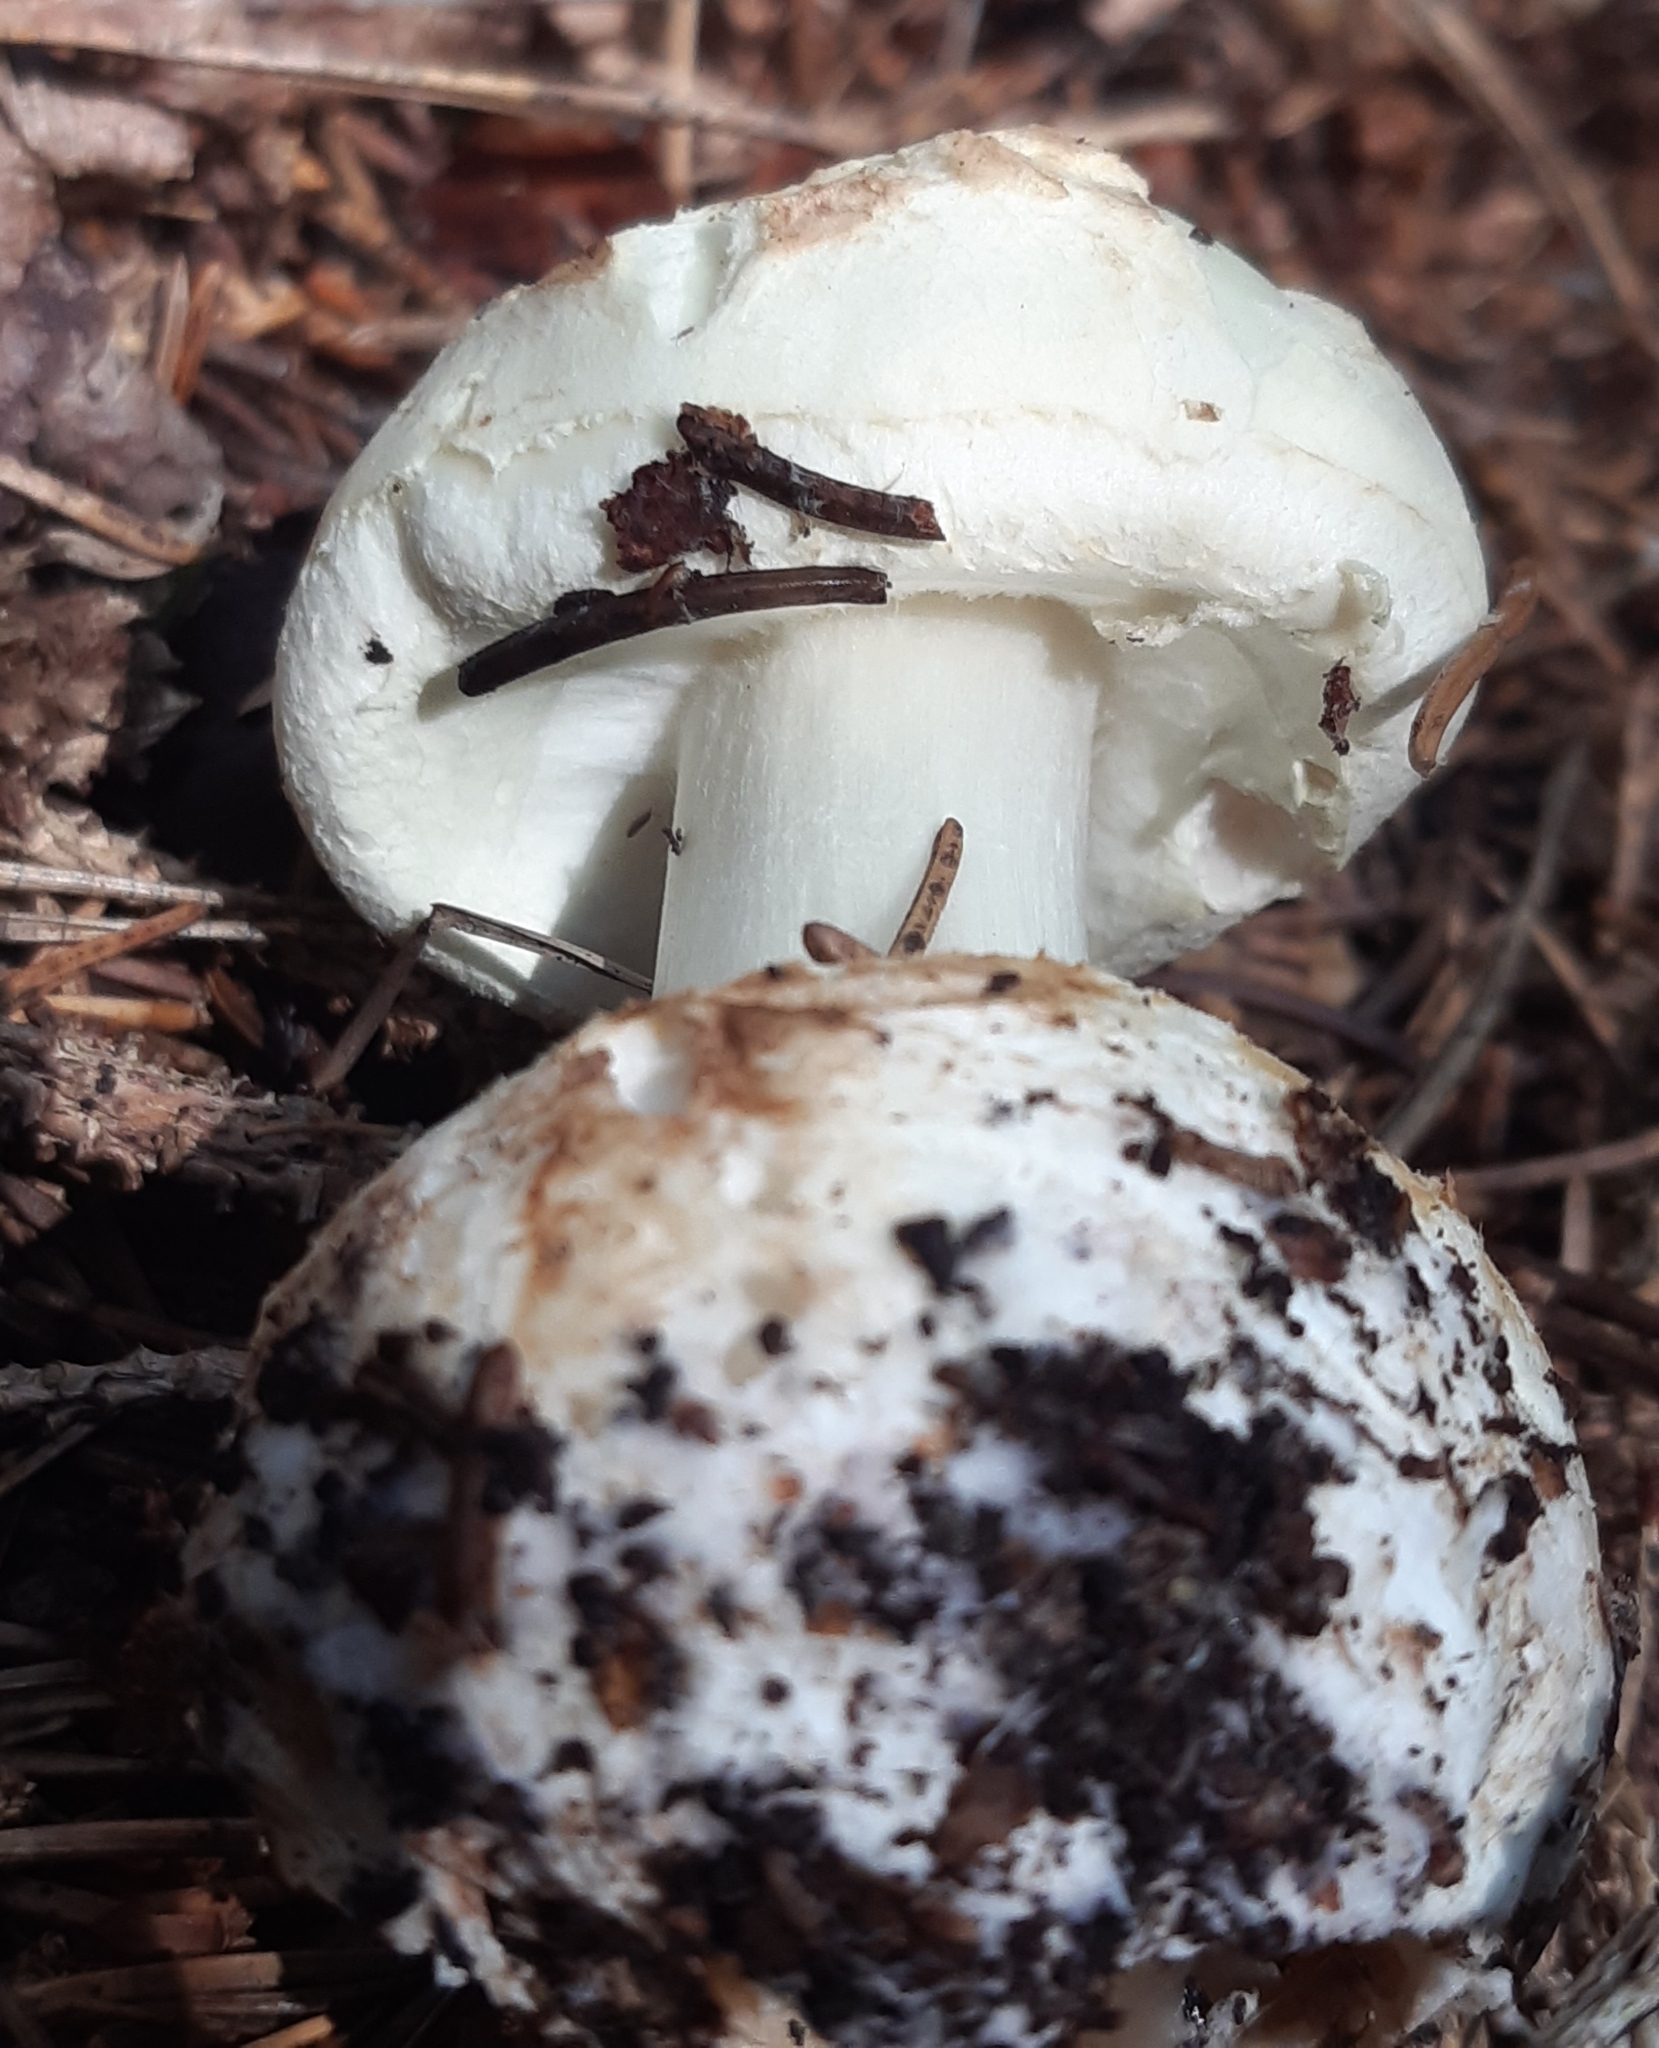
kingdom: Fungi
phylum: Basidiomycota
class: Agaricomycetes
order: Agaricales
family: Amanitaceae
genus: Amanita
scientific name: Amanita phalloides
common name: Death cap
